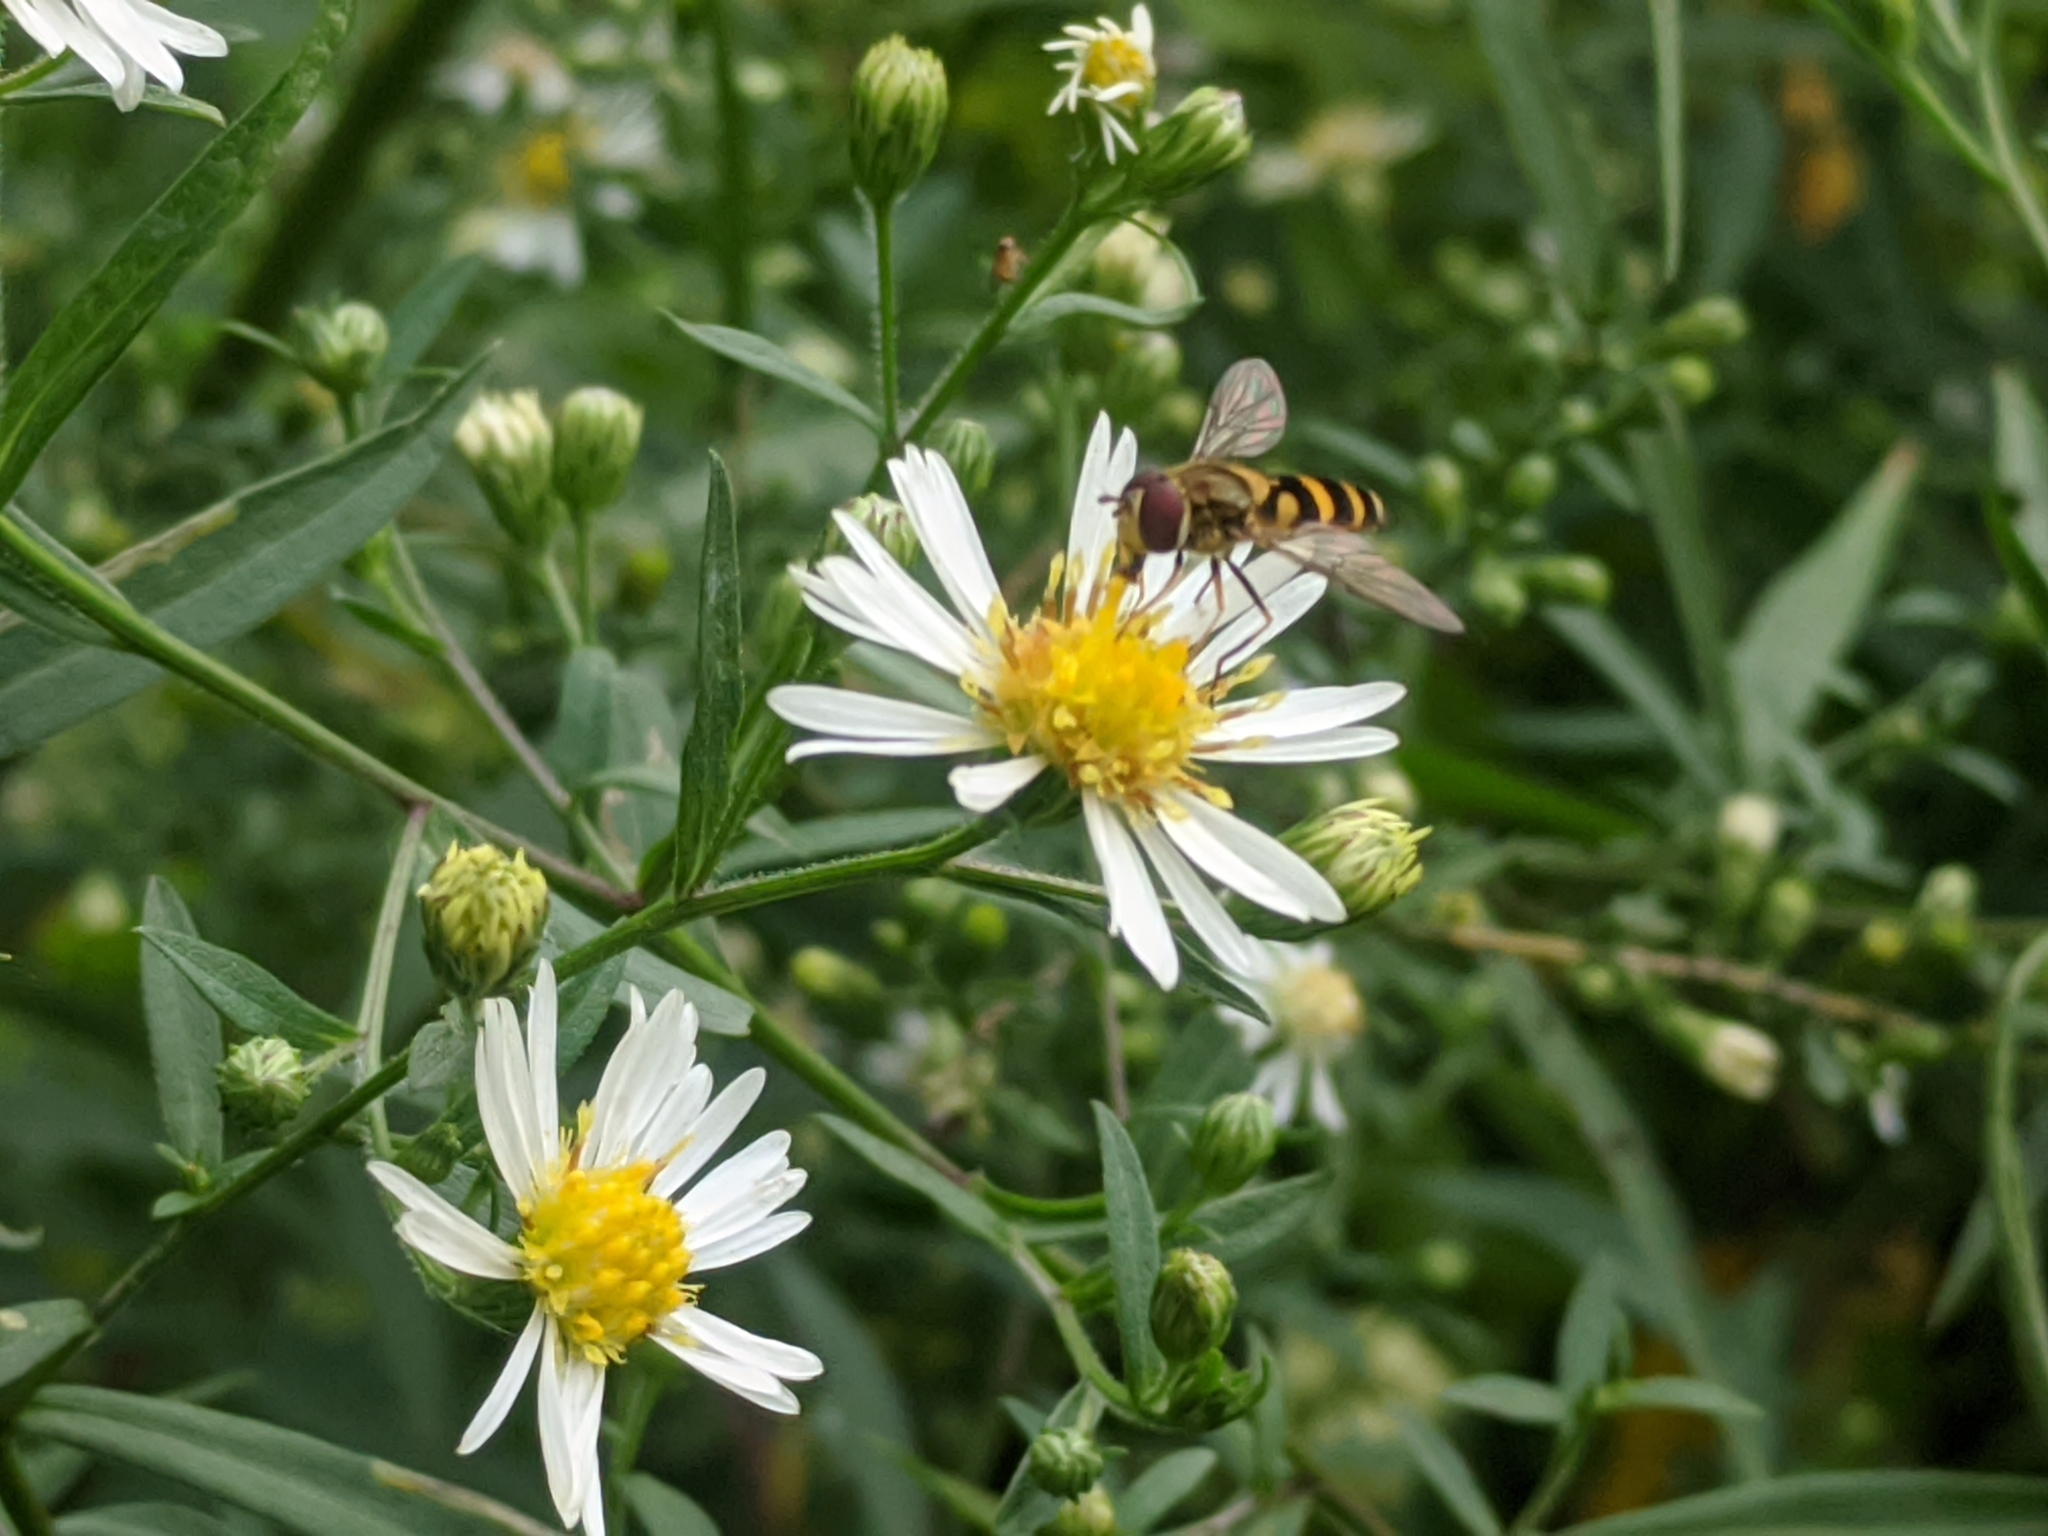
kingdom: Animalia
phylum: Arthropoda
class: Insecta
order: Diptera
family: Syrphidae
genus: Syrphus
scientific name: Syrphus
